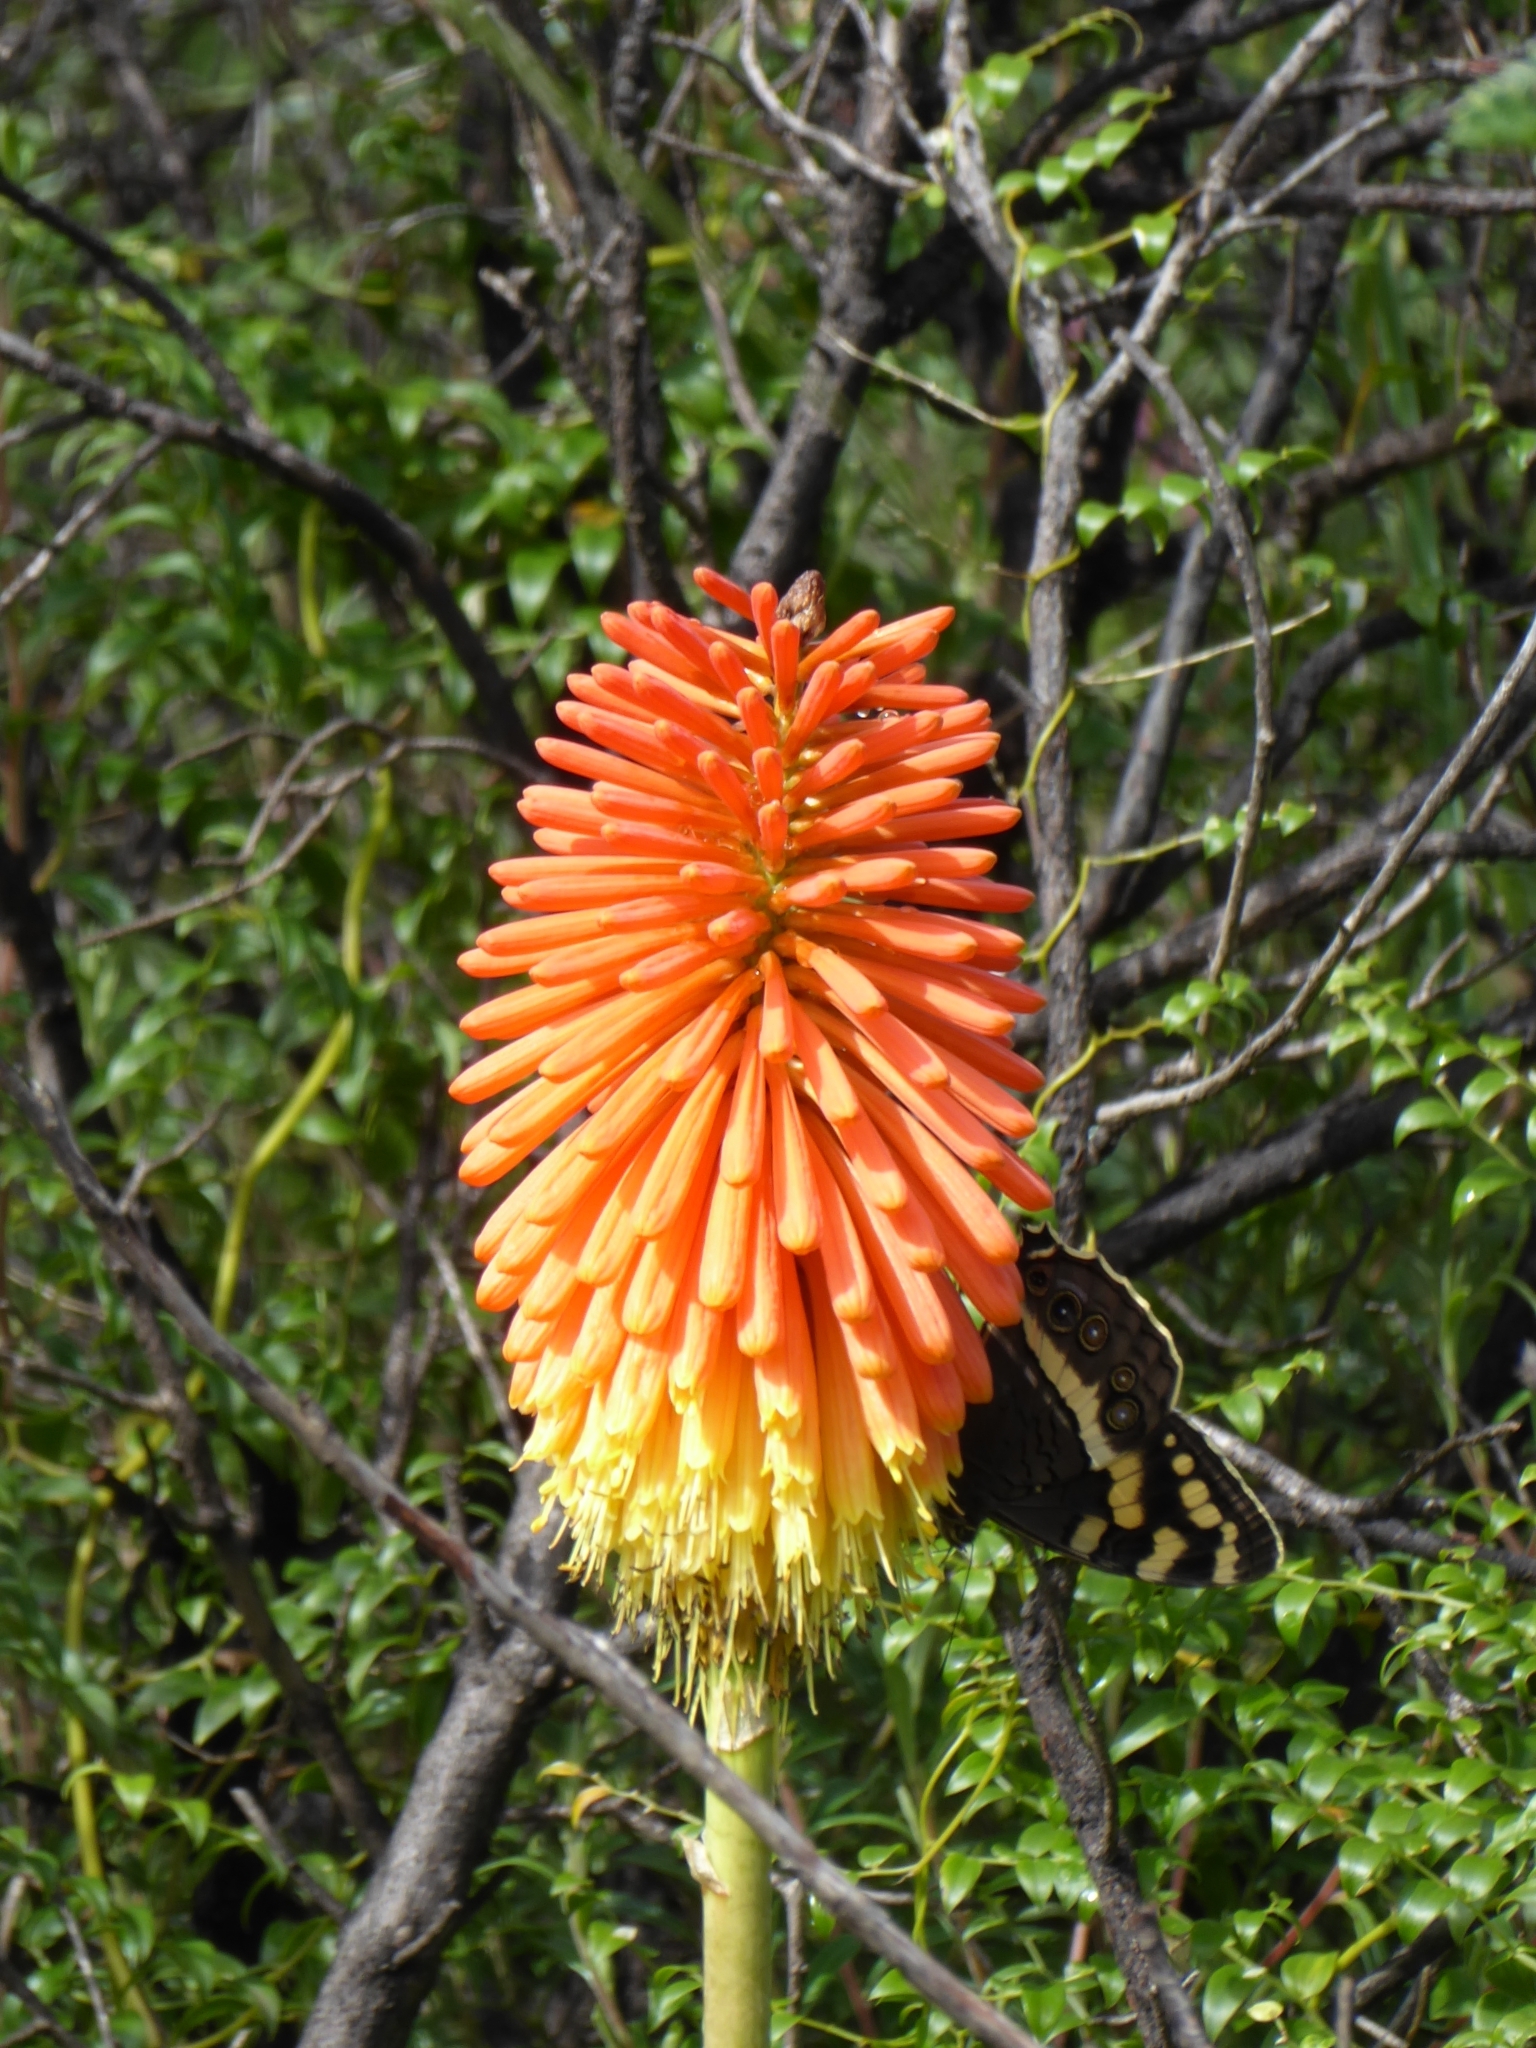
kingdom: Animalia
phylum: Arthropoda
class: Insecta
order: Lepidoptera
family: Nymphalidae
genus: Meneris
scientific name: Meneris Aeropetes tulbaghia
